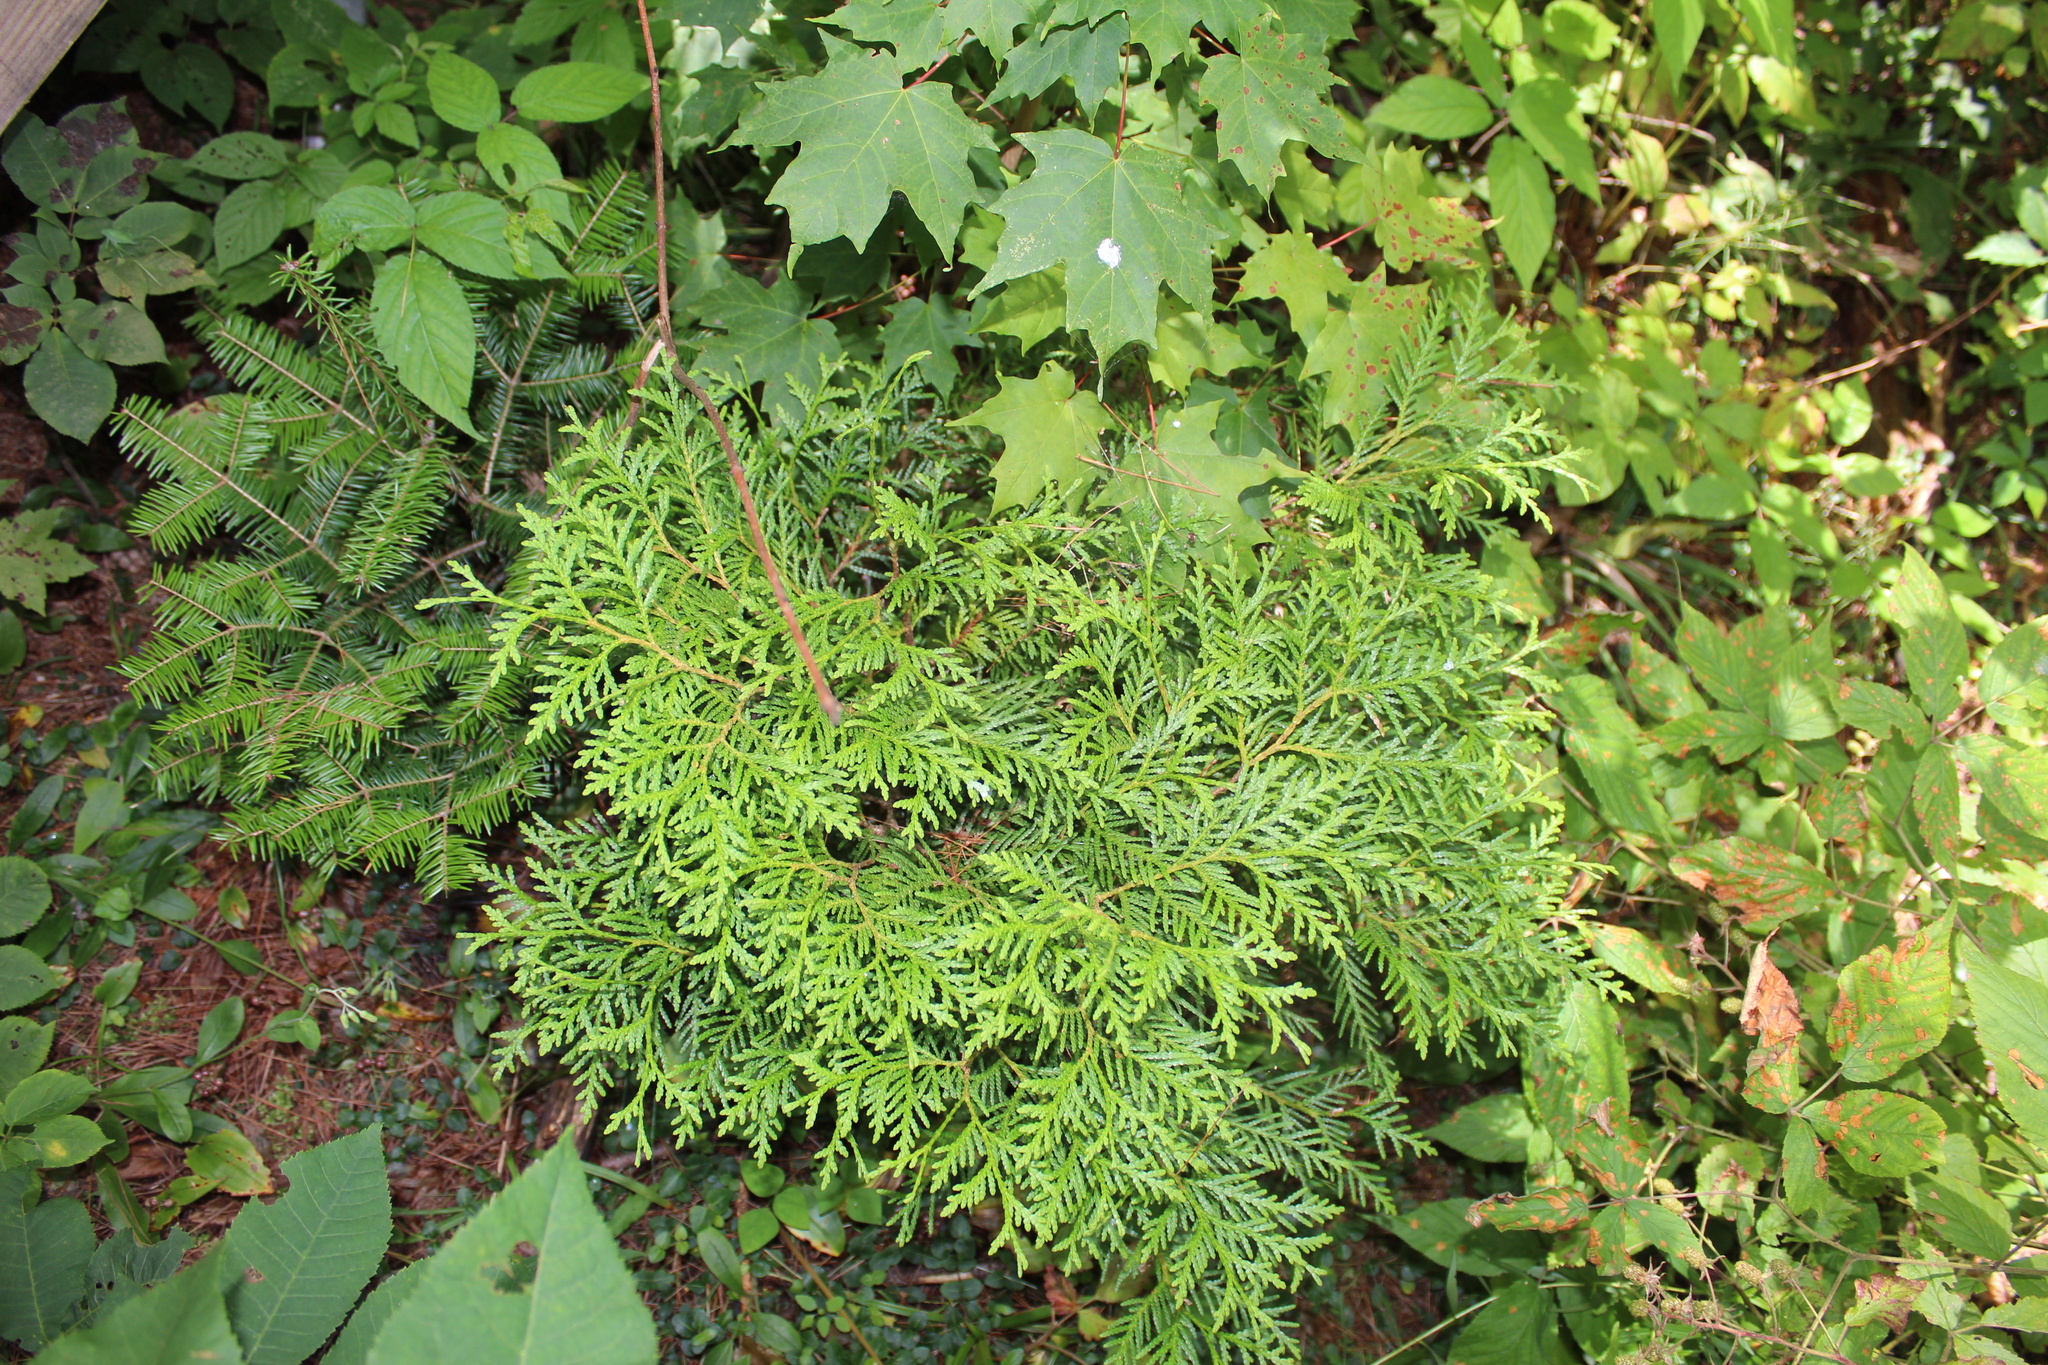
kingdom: Plantae
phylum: Tracheophyta
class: Pinopsida
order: Pinales
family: Cupressaceae
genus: Thuja
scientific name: Thuja occidentalis
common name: Northern white-cedar
